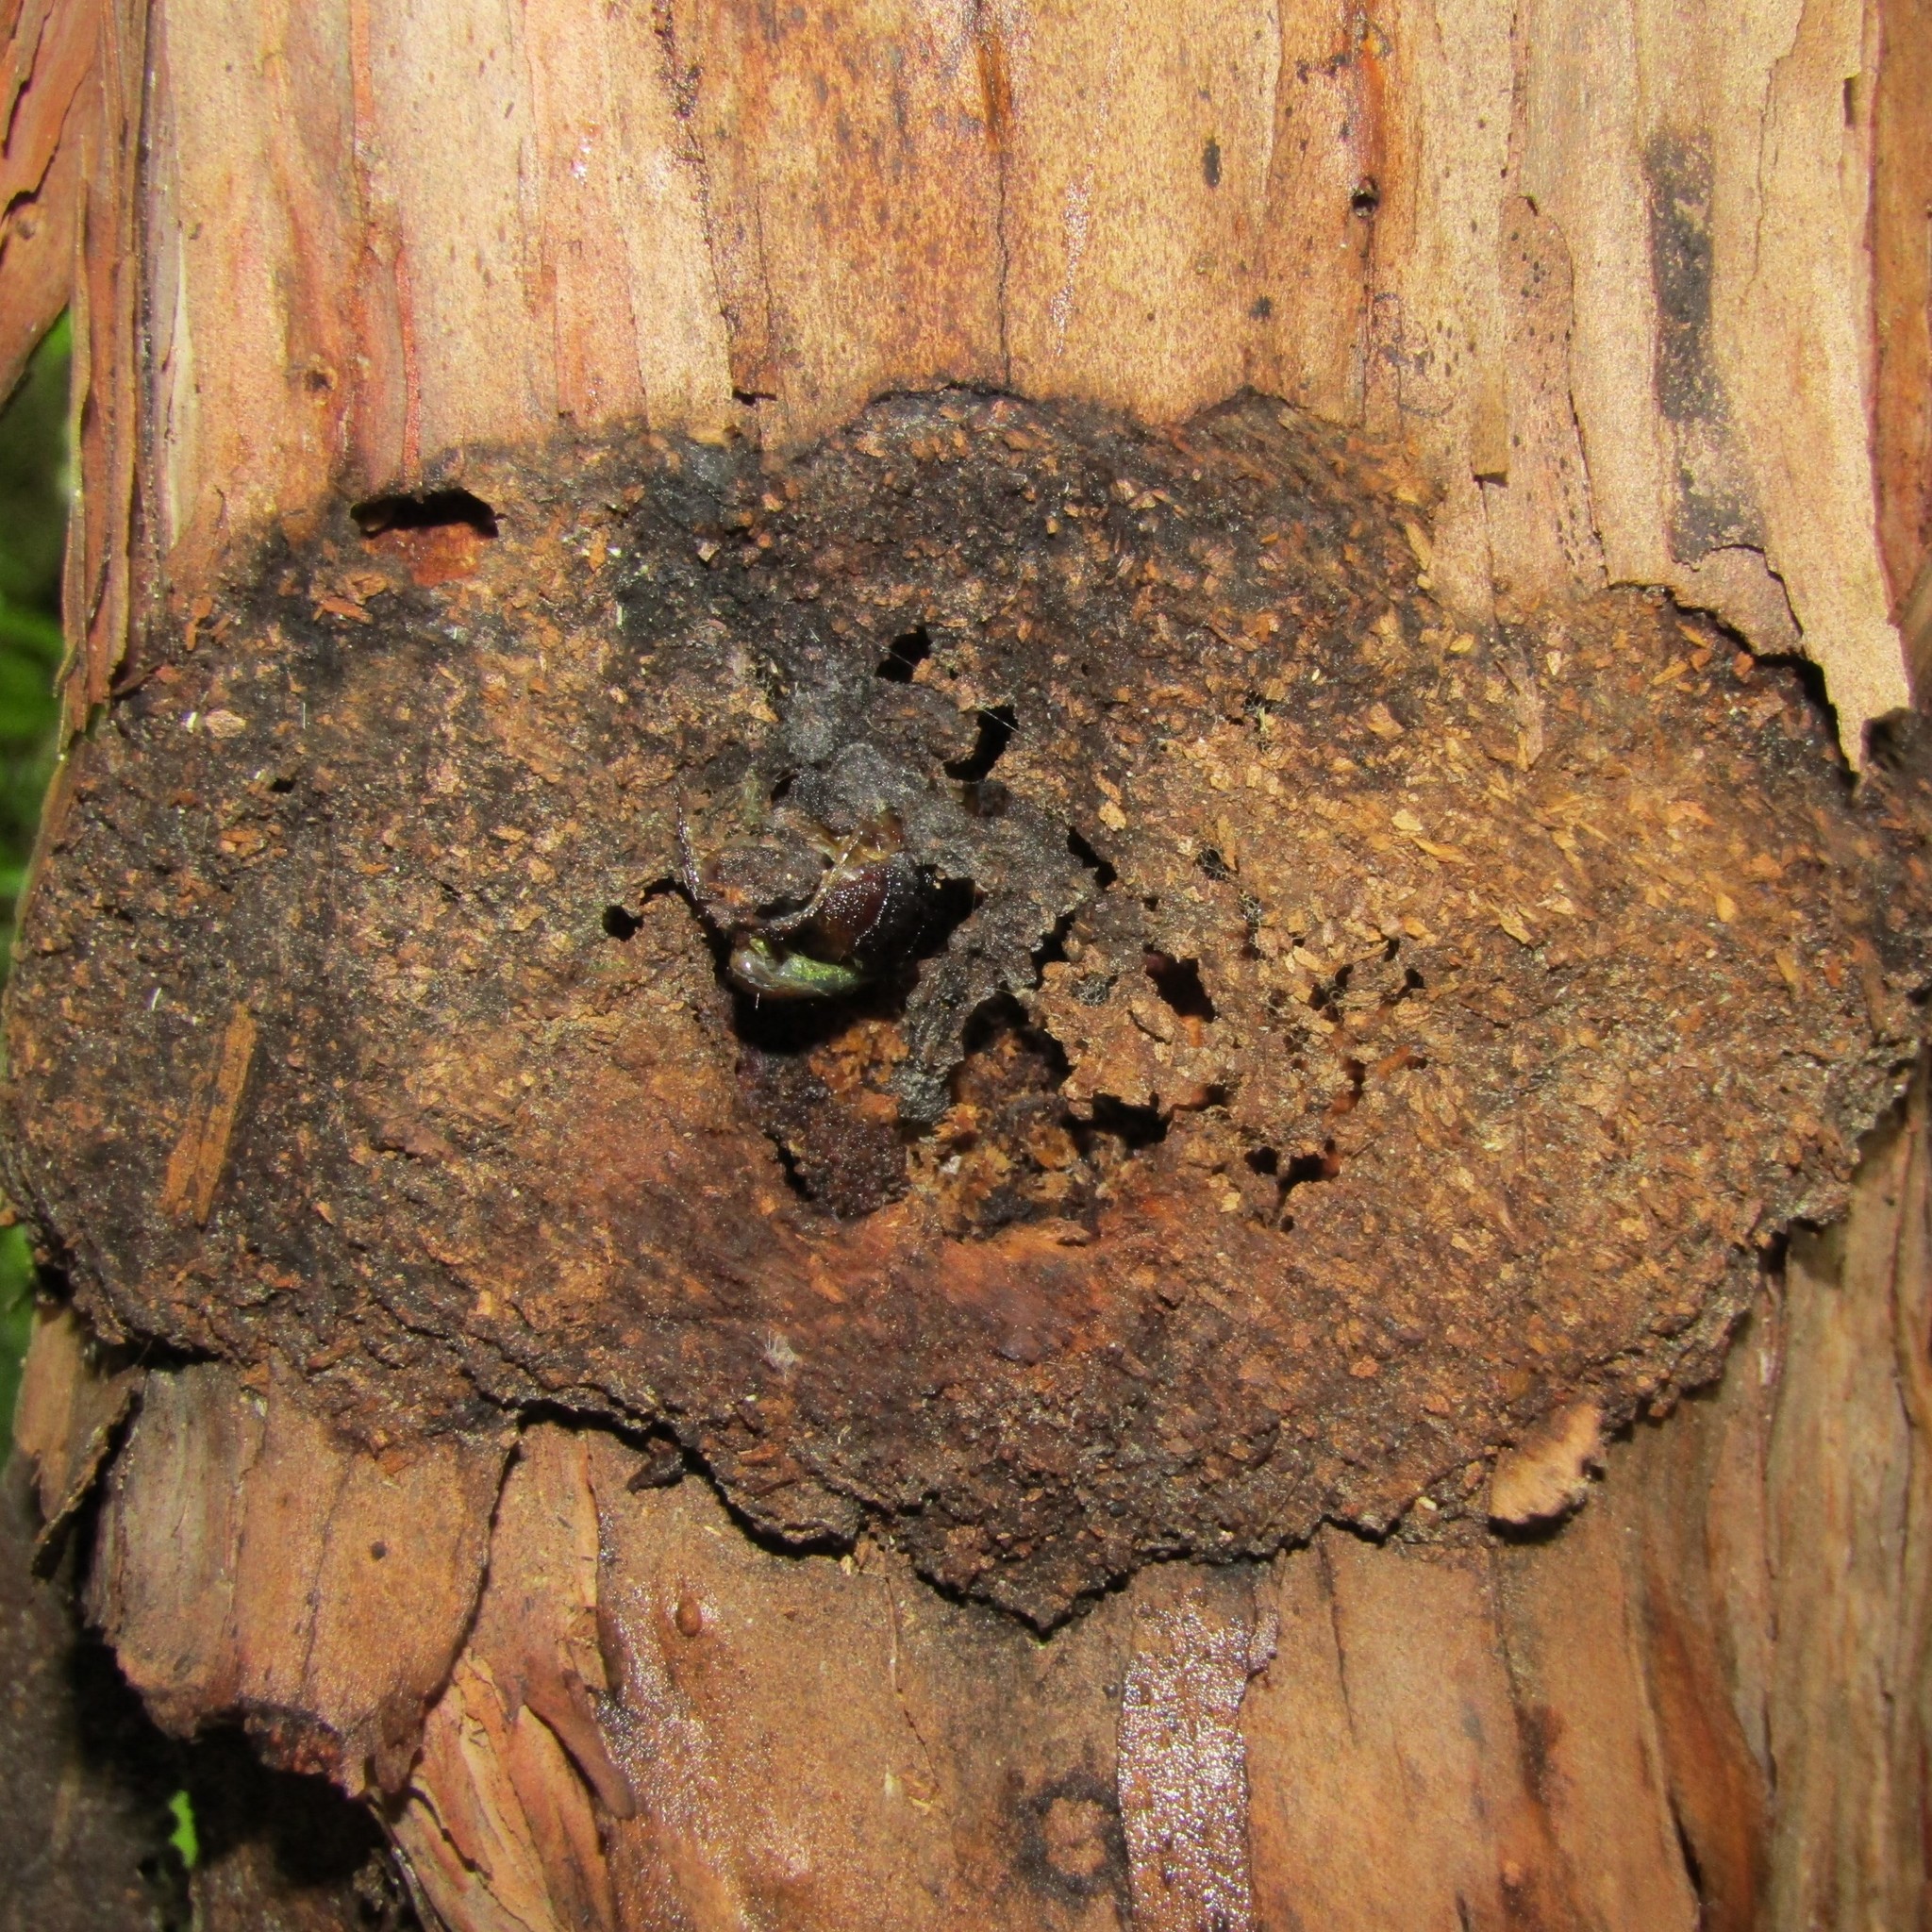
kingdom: Animalia
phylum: Arthropoda
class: Insecta
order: Lepidoptera
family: Hepialidae
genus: Aenetus
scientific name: Aenetus virescens
